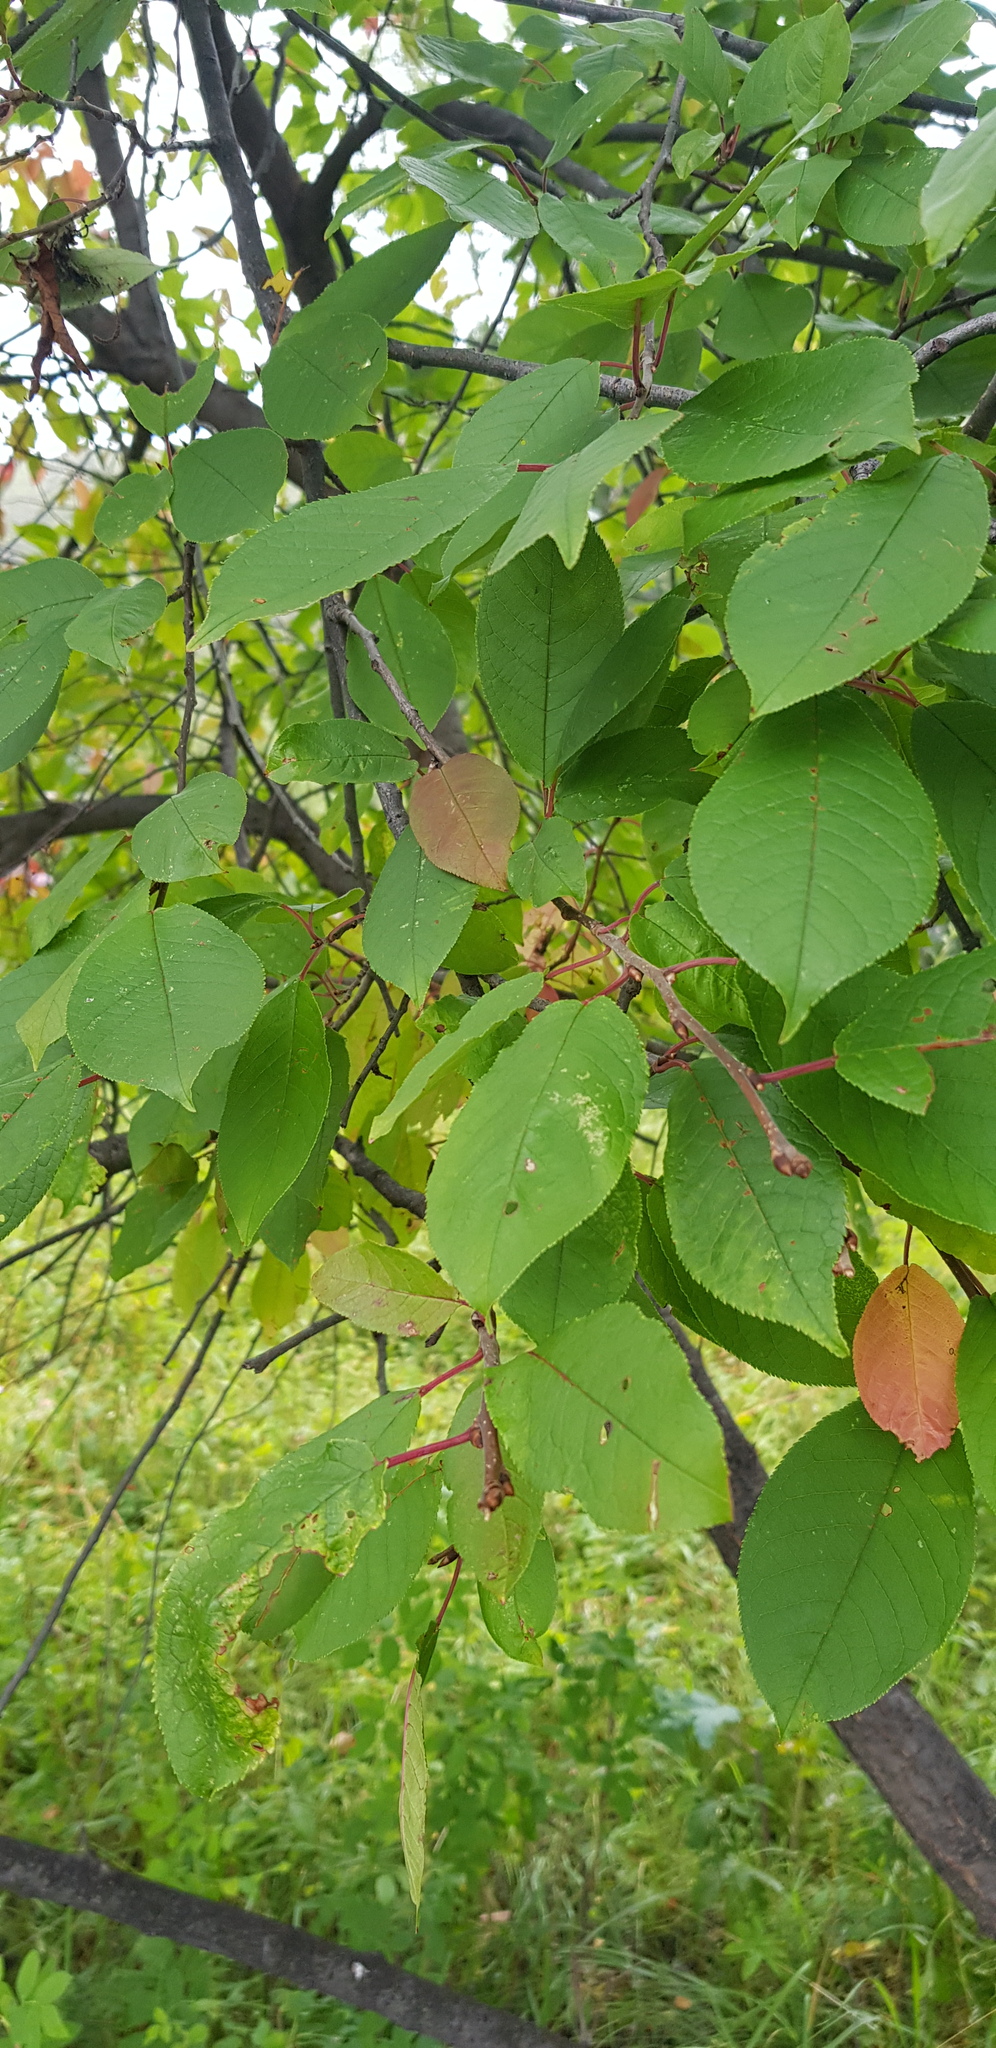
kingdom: Plantae
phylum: Tracheophyta
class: Magnoliopsida
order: Rosales
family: Rosaceae
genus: Prunus
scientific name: Prunus padus
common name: Bird cherry
